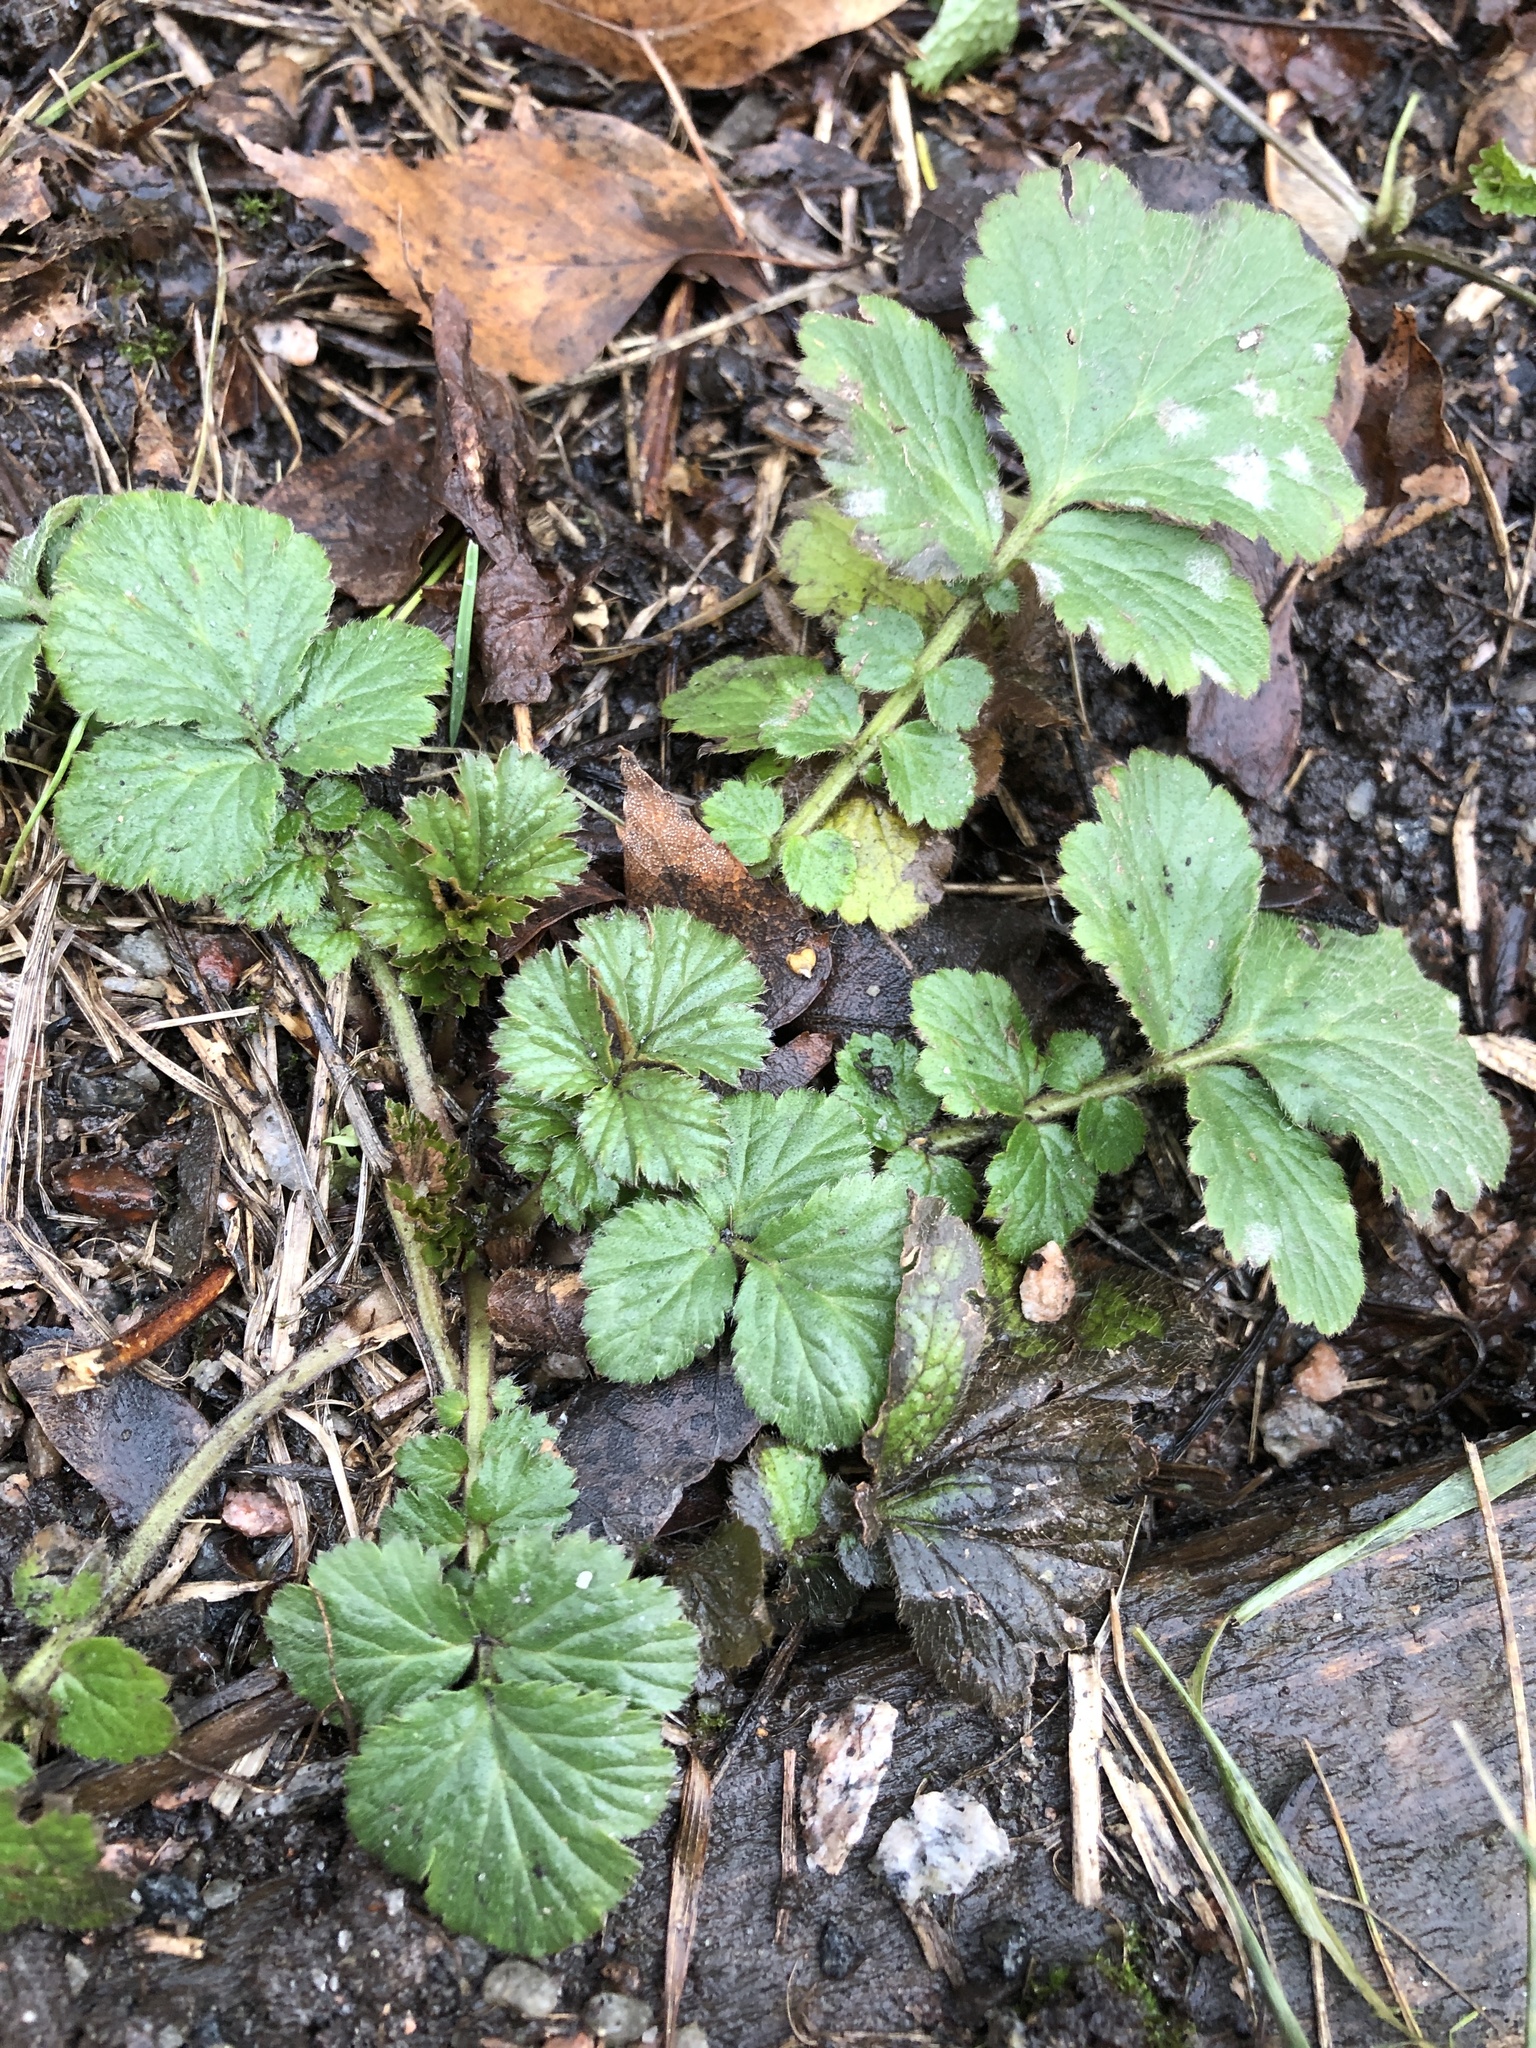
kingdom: Plantae
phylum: Tracheophyta
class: Magnoliopsida
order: Rosales
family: Rosaceae
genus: Geum
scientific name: Geum
